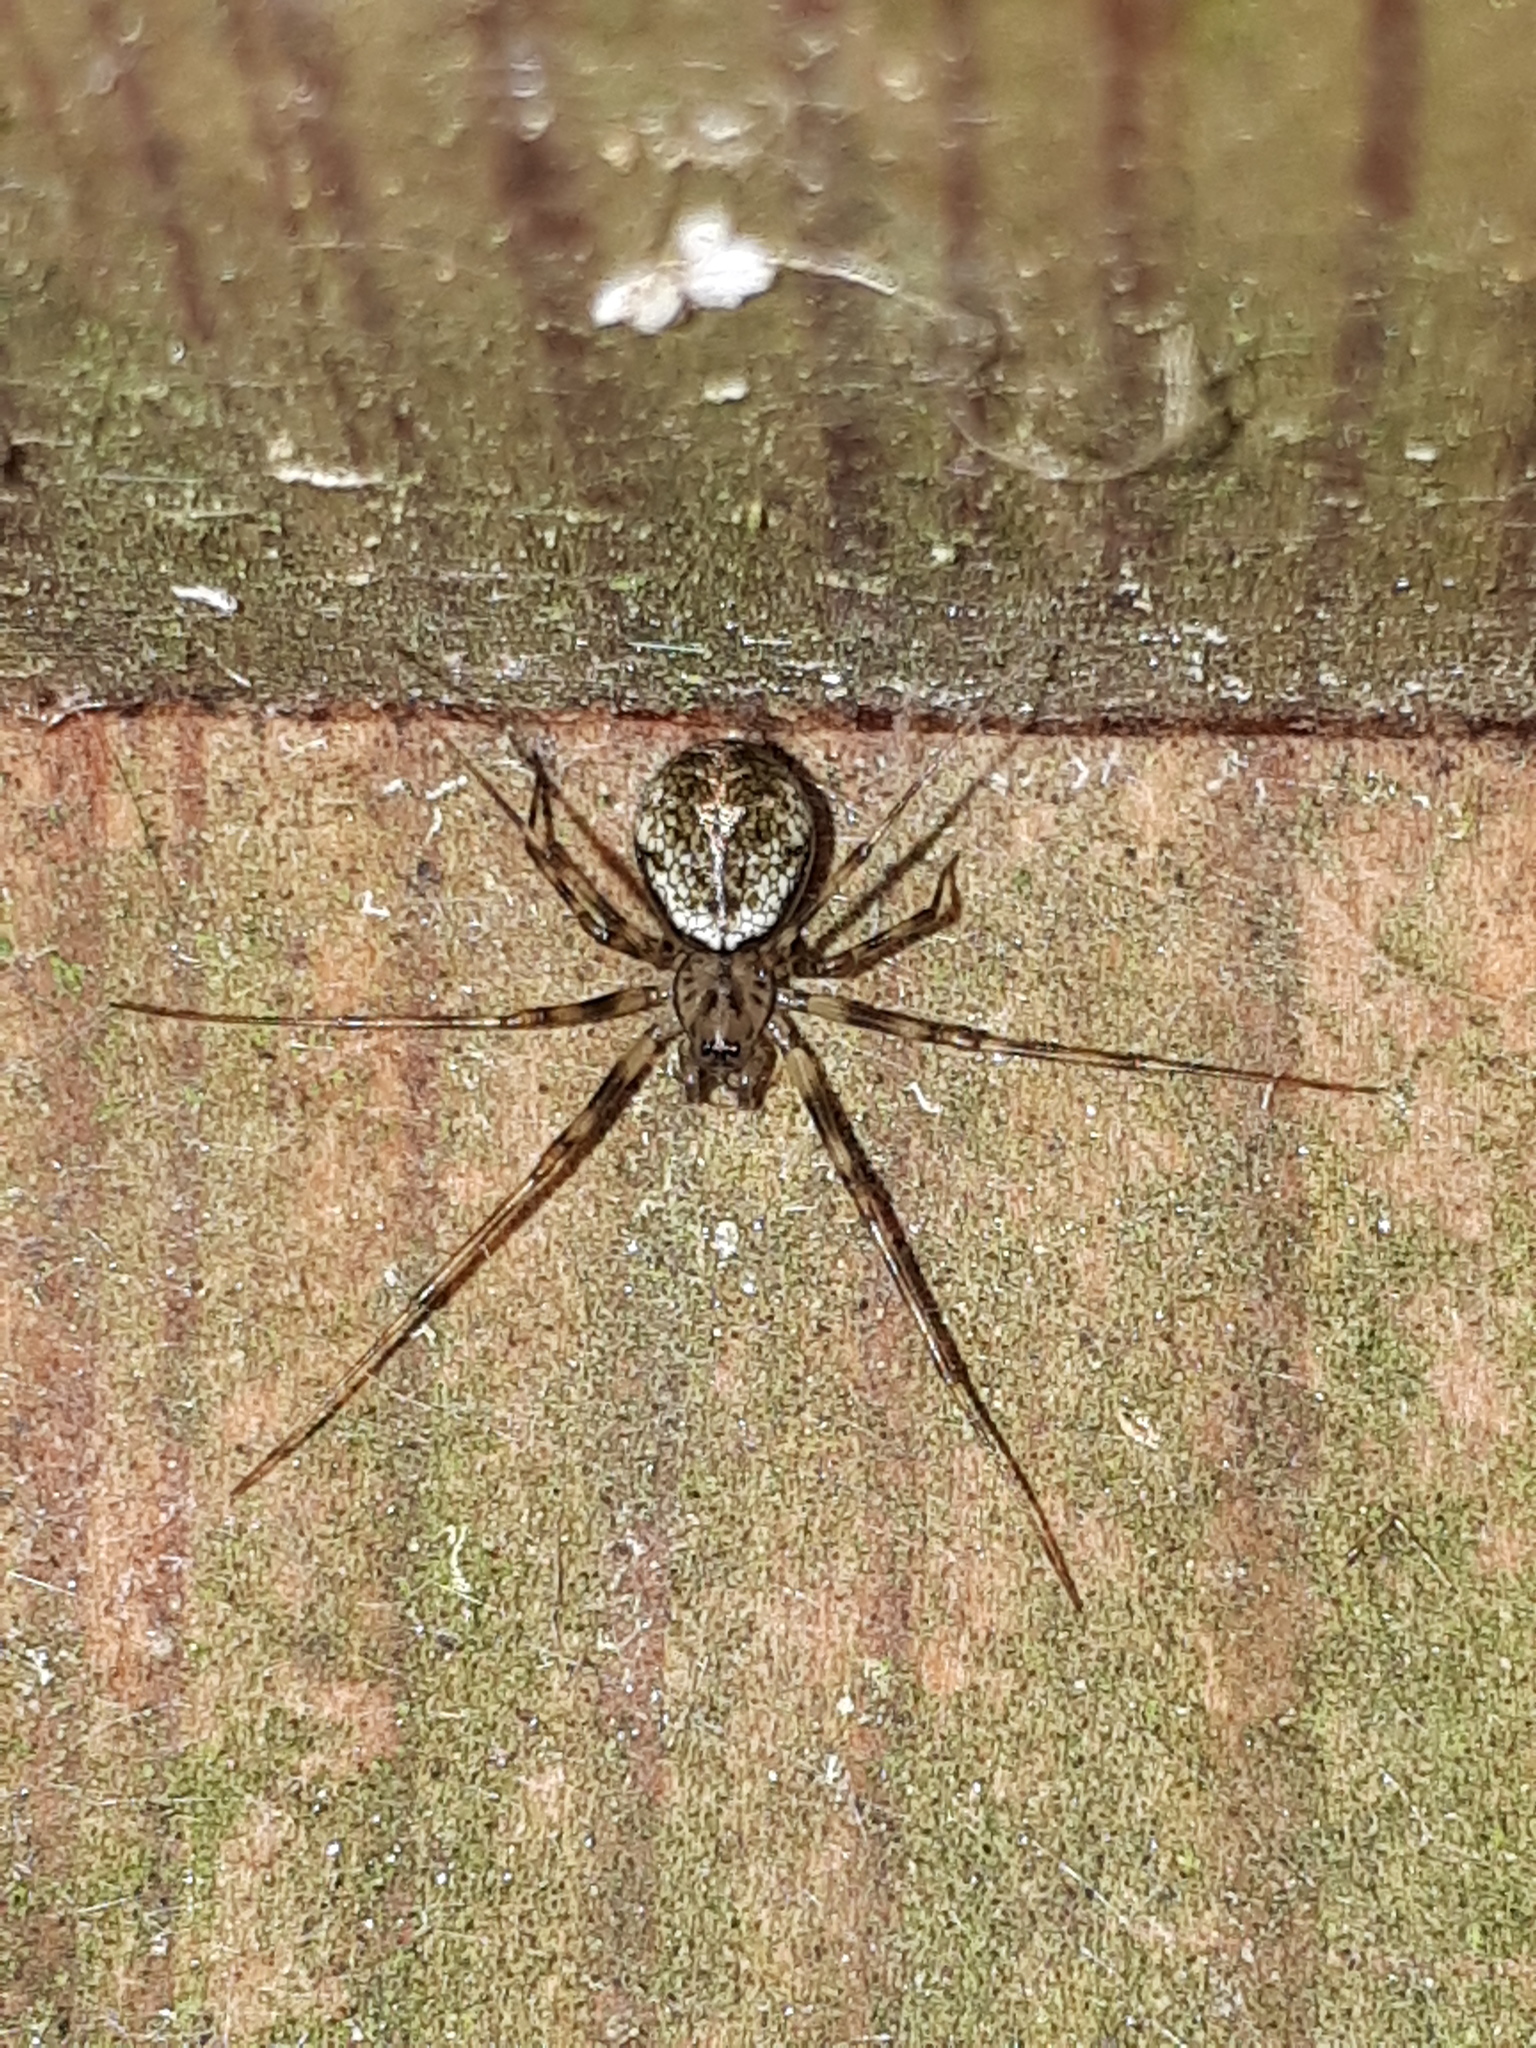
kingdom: Animalia
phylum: Arthropoda
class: Arachnida
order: Araneae
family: Linyphiidae
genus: Drapetisca
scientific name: Drapetisca socialis
